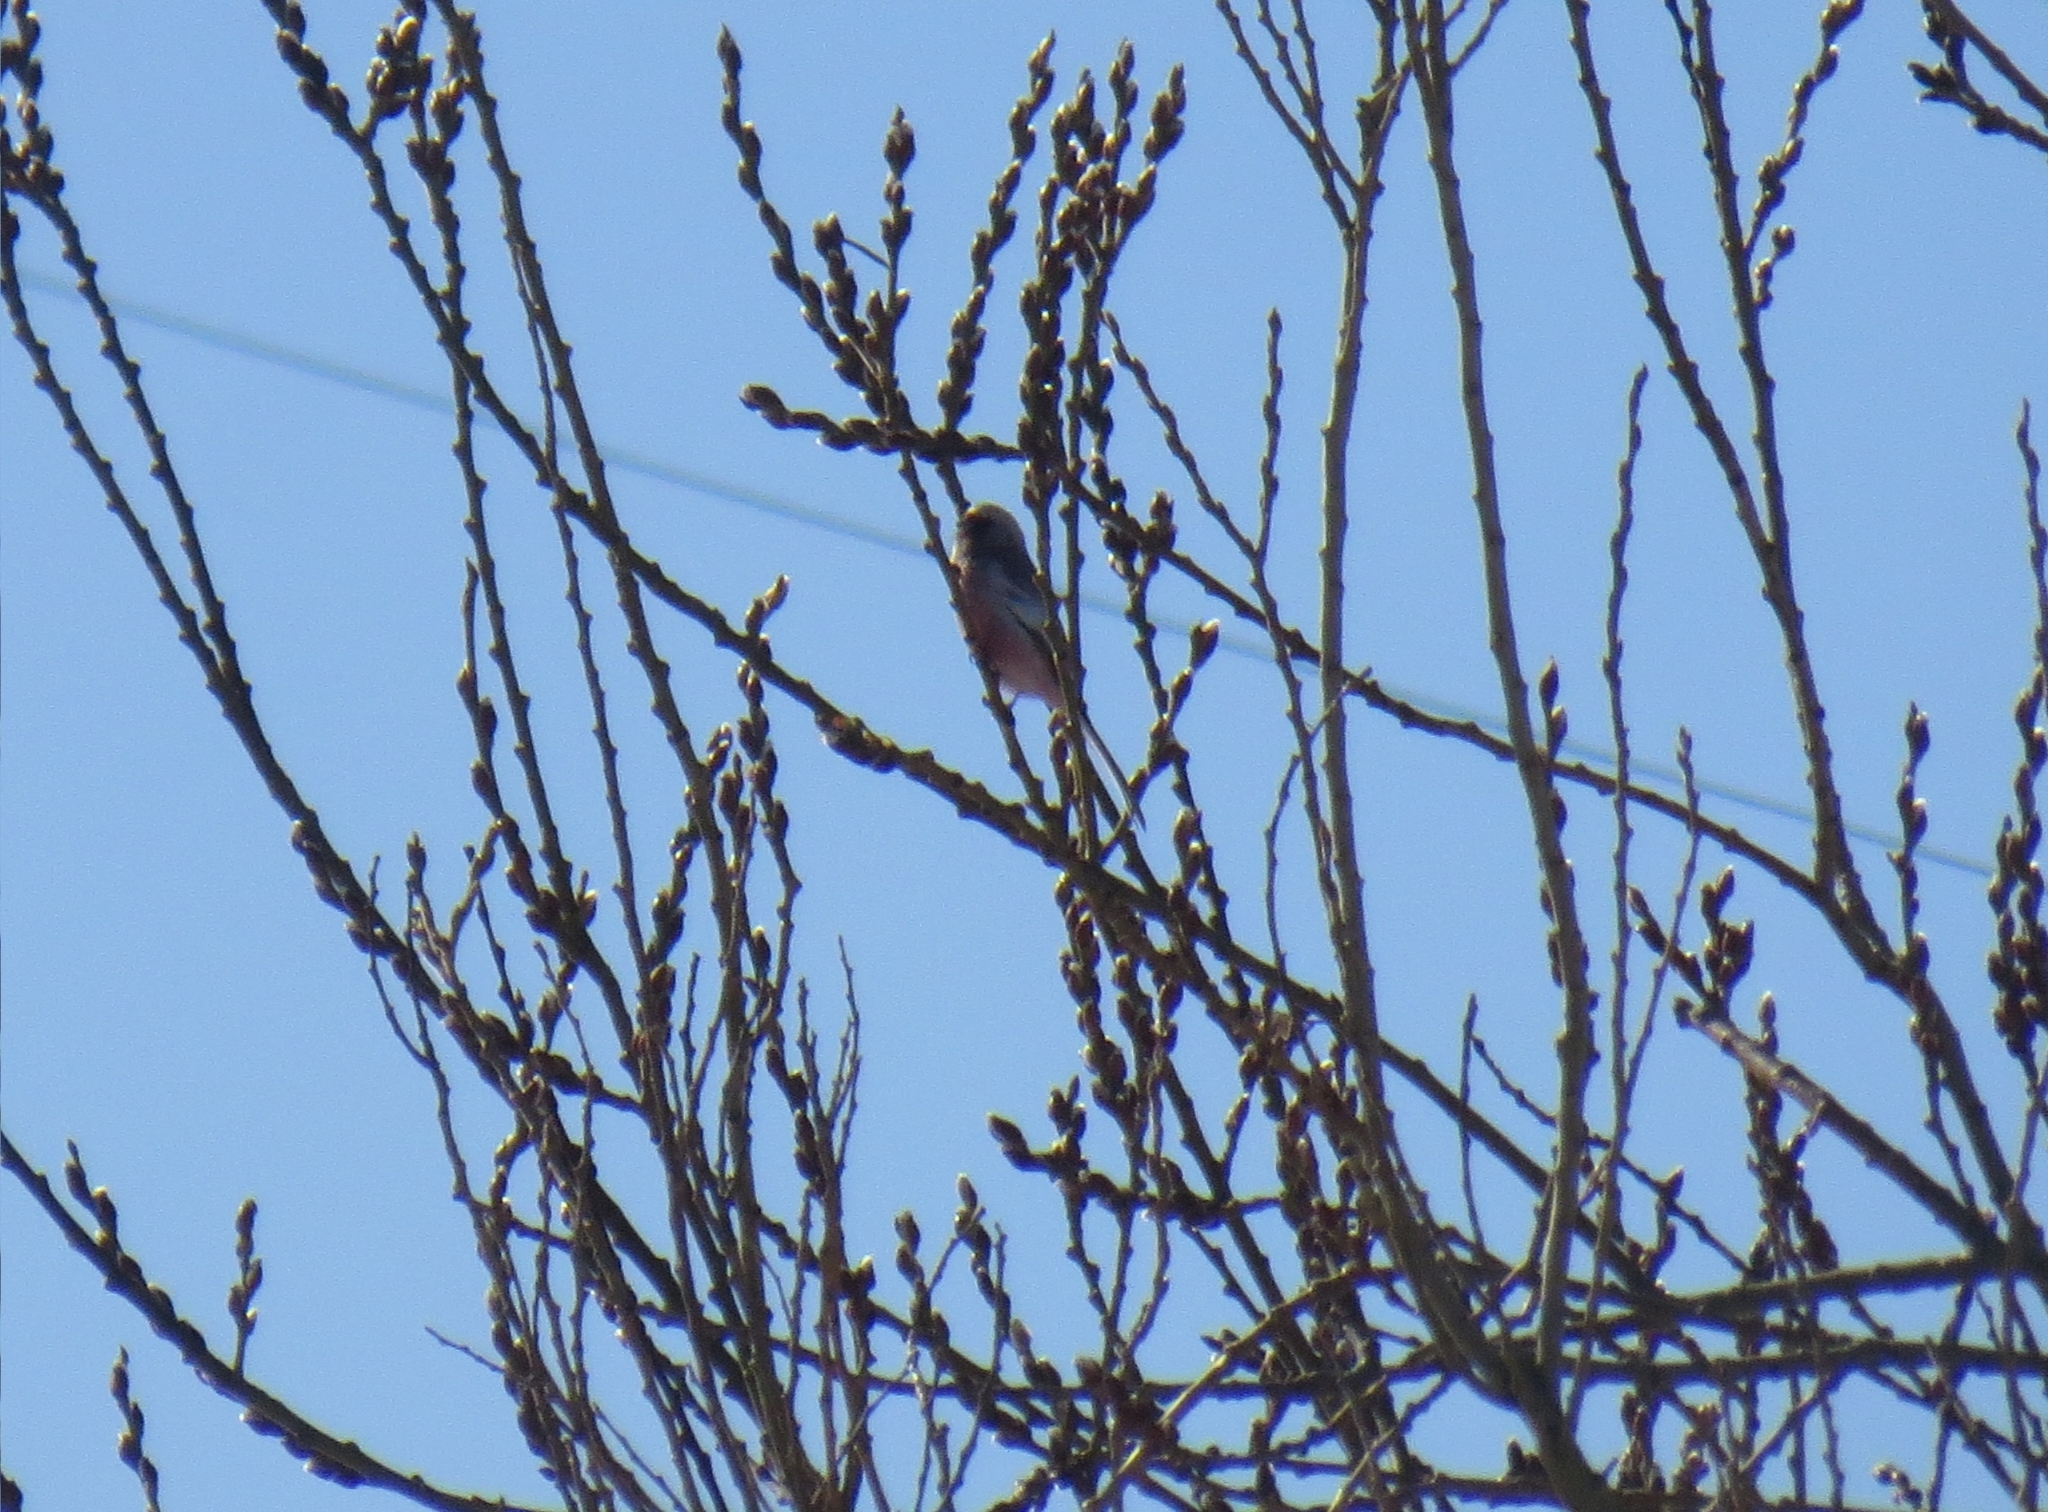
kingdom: Animalia
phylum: Chordata
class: Aves
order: Passeriformes
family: Fringillidae
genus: Carpodacus
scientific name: Carpodacus sibiricus
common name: Long-tailed rosefinch
